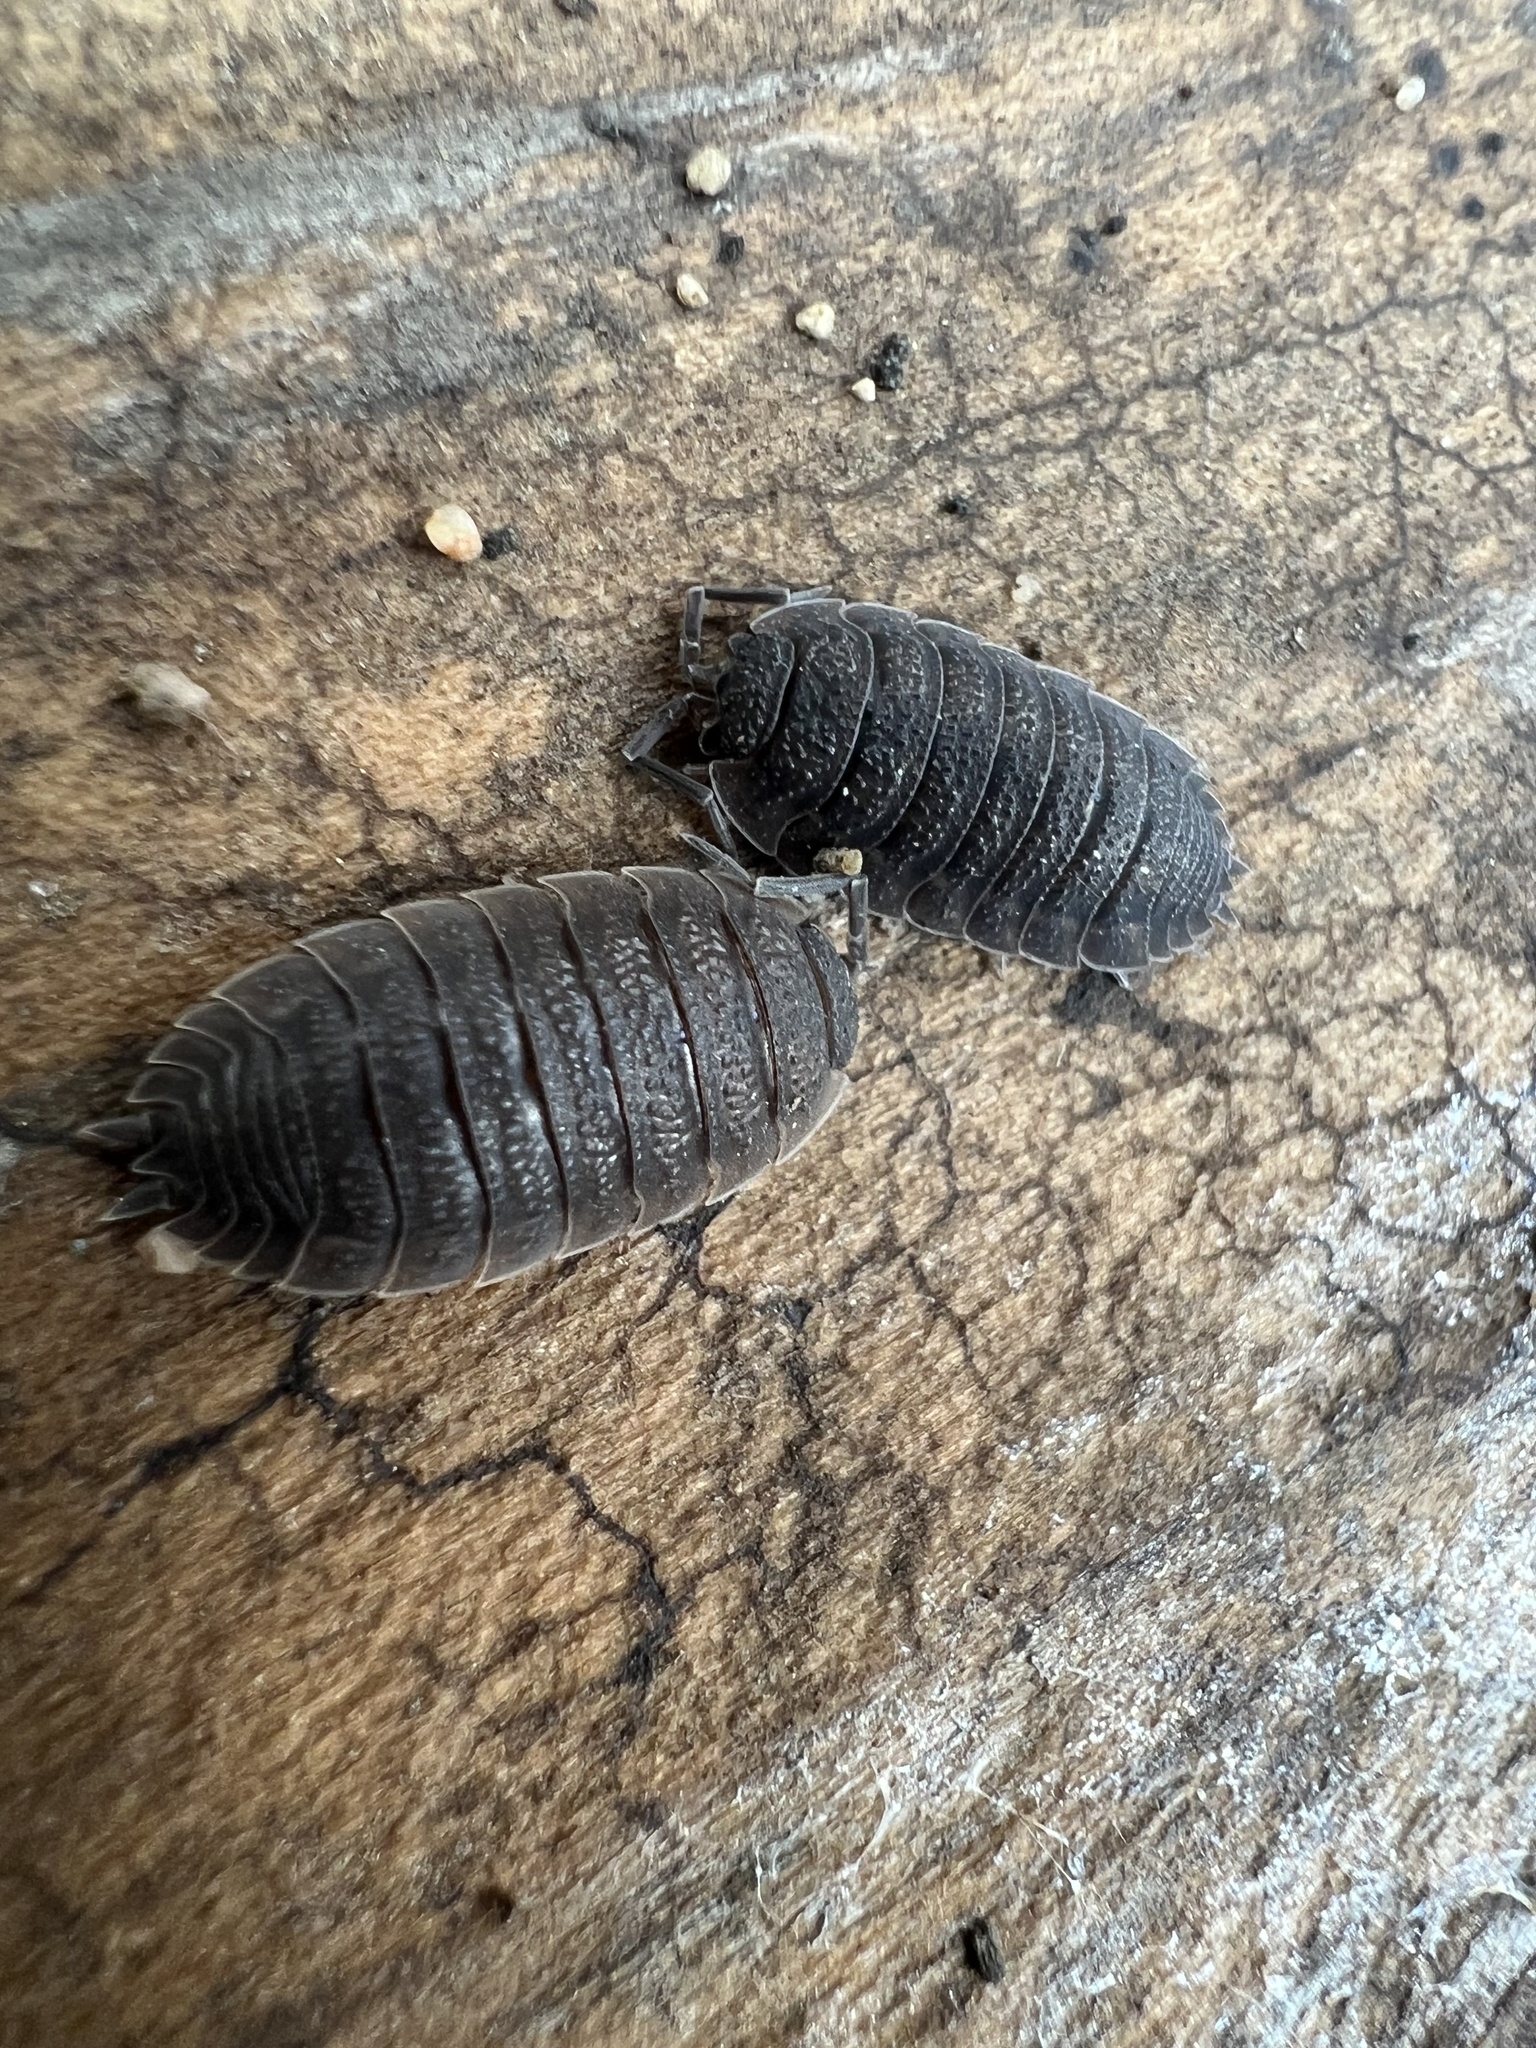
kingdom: Animalia
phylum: Arthropoda
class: Malacostraca
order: Isopoda
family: Porcellionidae
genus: Porcellio
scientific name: Porcellio scaber
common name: Common rough woodlouse
